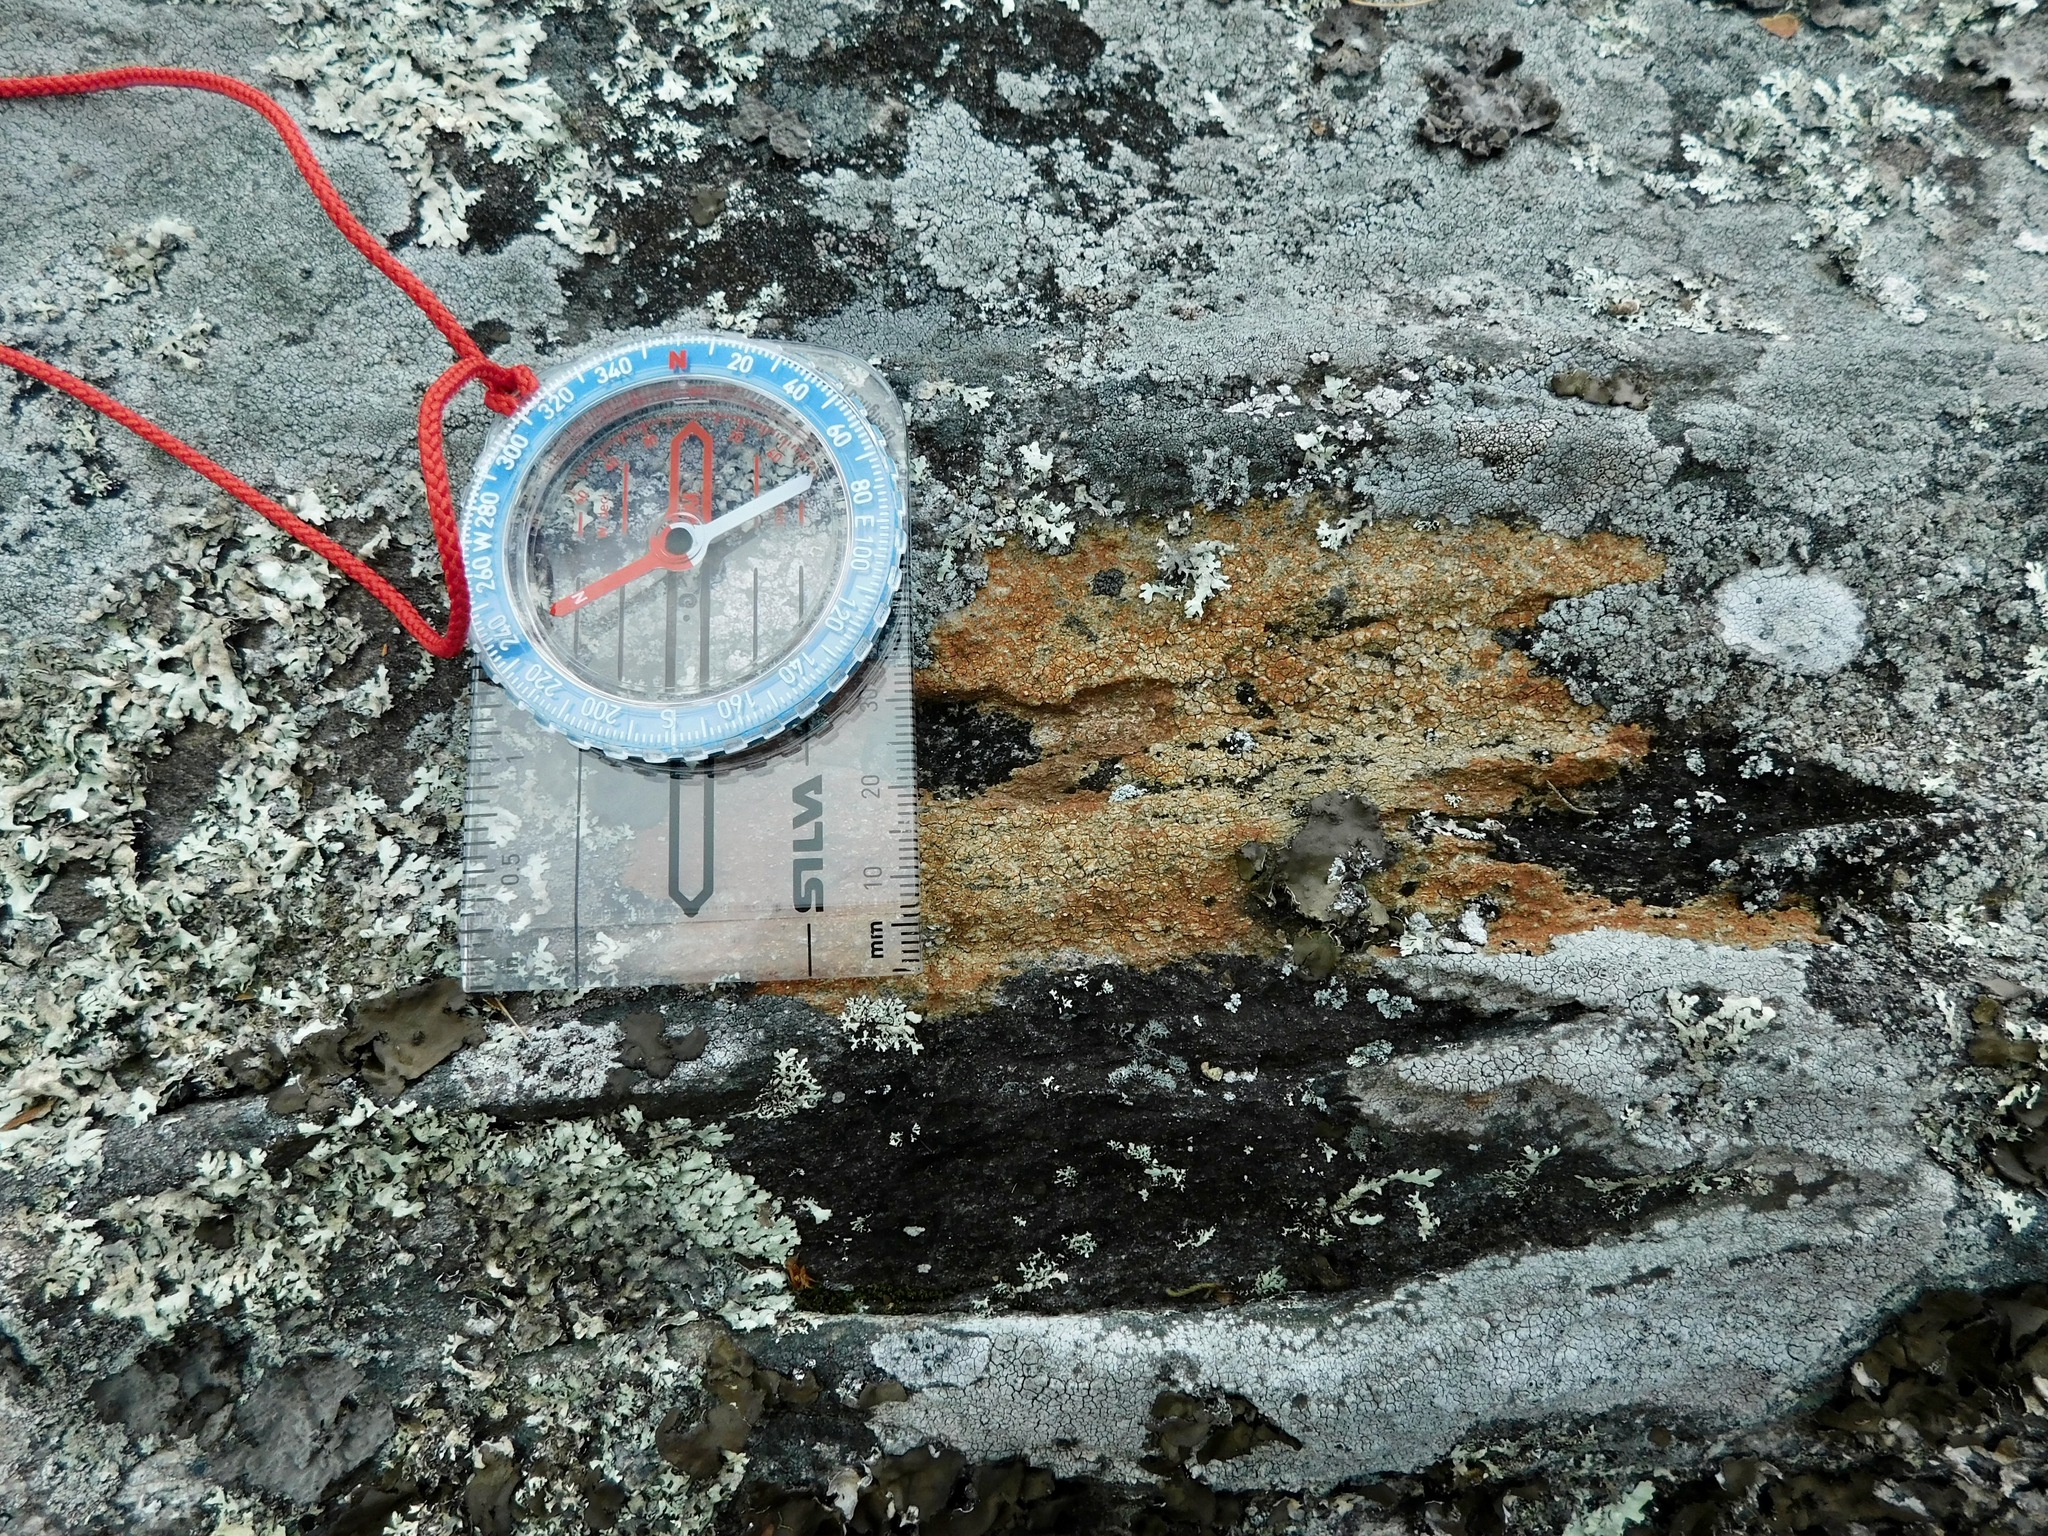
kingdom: Fungi
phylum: Ascomycota
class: Lecanoromycetes
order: Acarosporales
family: Acarosporaceae
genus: Acarospora
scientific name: Acarospora sinopica
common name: Sinoper lichen
